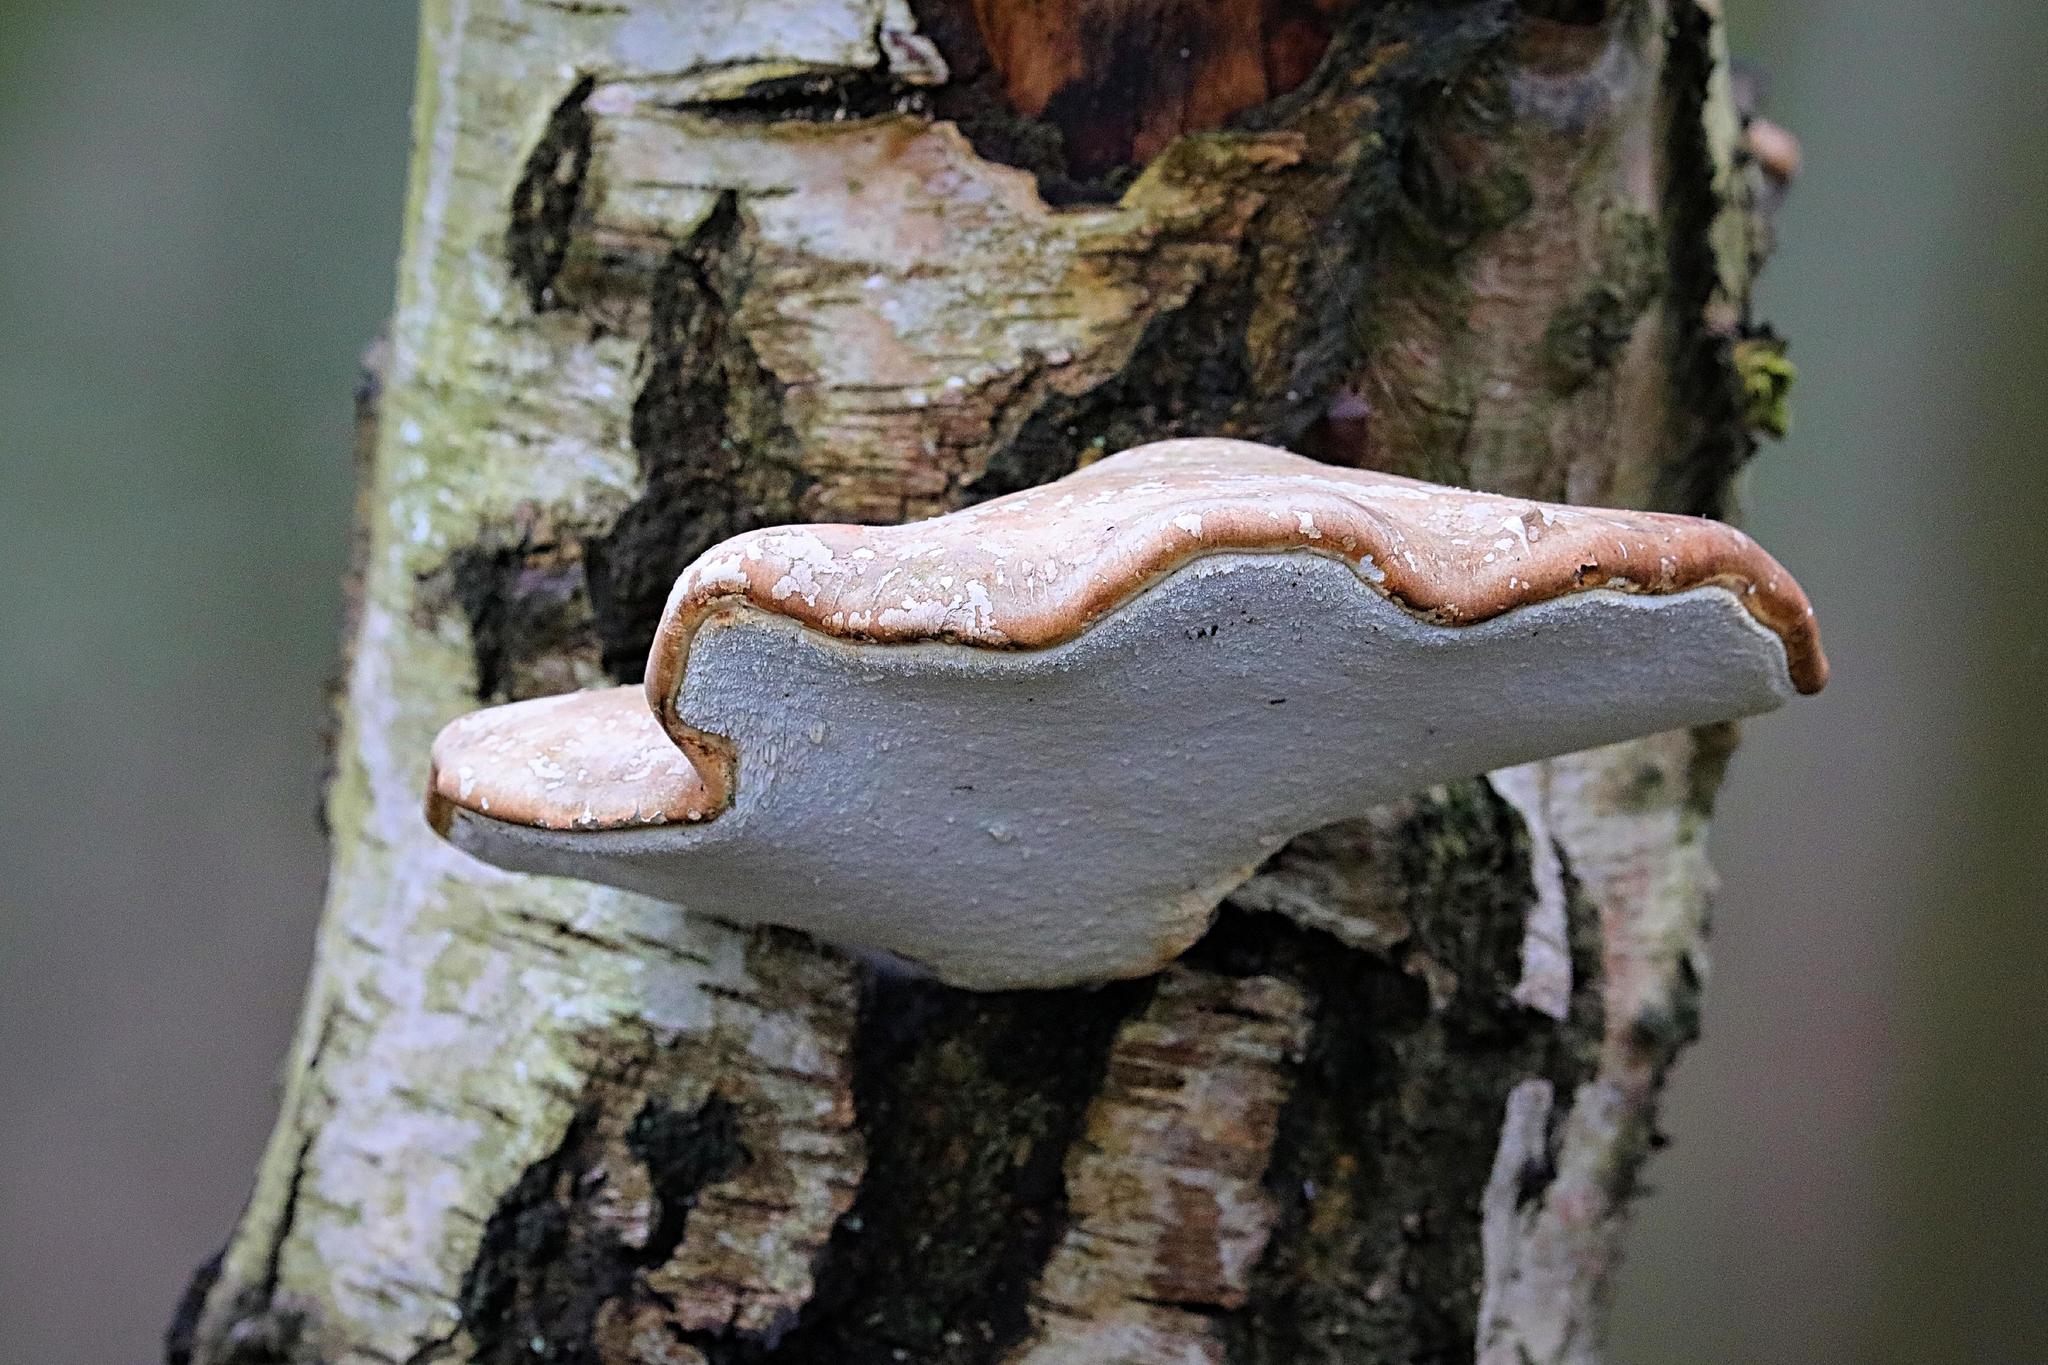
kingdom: Fungi
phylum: Basidiomycota
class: Agaricomycetes
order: Polyporales
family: Fomitopsidaceae
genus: Fomitopsis
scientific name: Fomitopsis betulina
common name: Birch polypore
